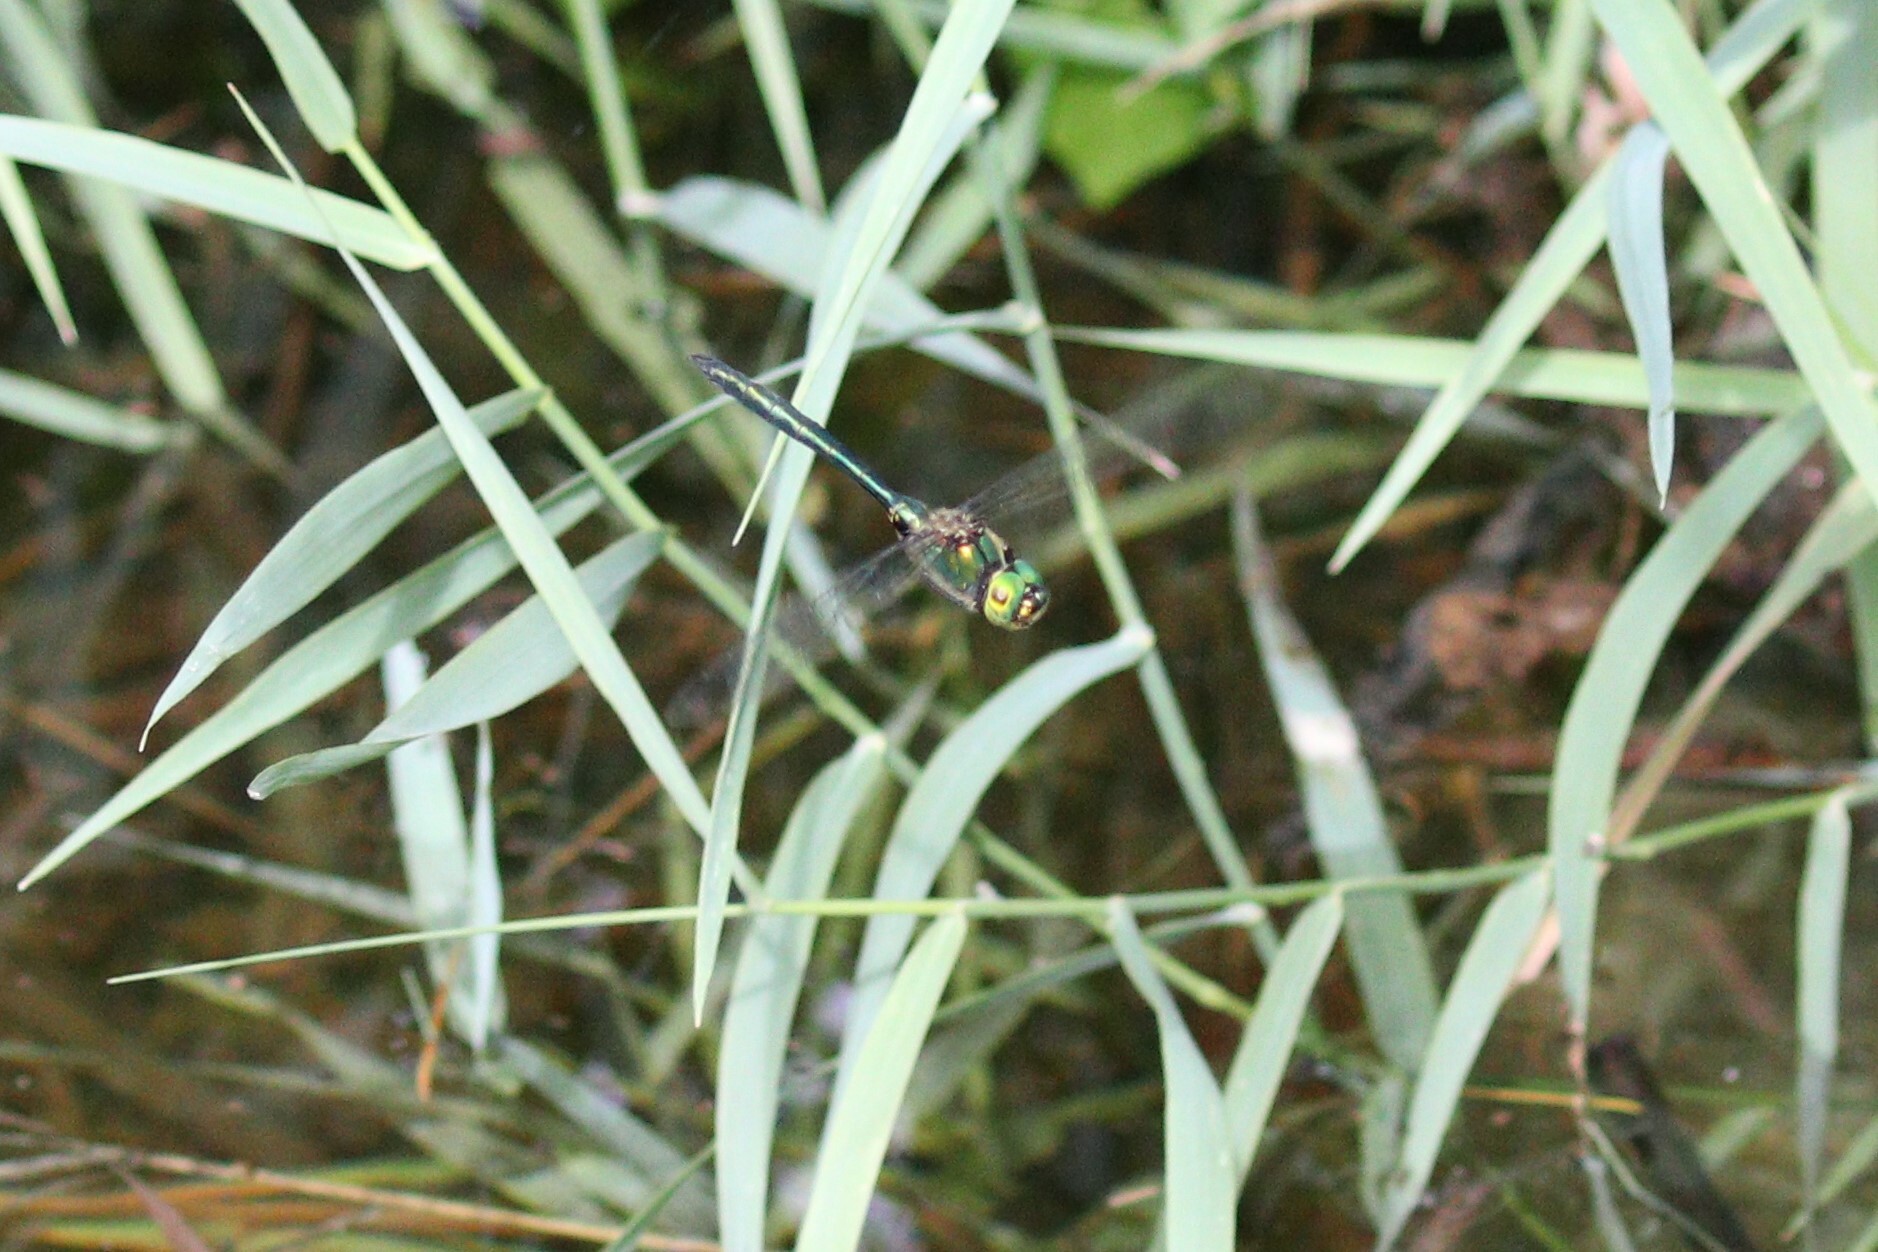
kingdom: Animalia
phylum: Arthropoda
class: Insecta
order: Odonata
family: Corduliidae
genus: Somatochlora
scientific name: Somatochlora metallica
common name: Brilliant emerald
